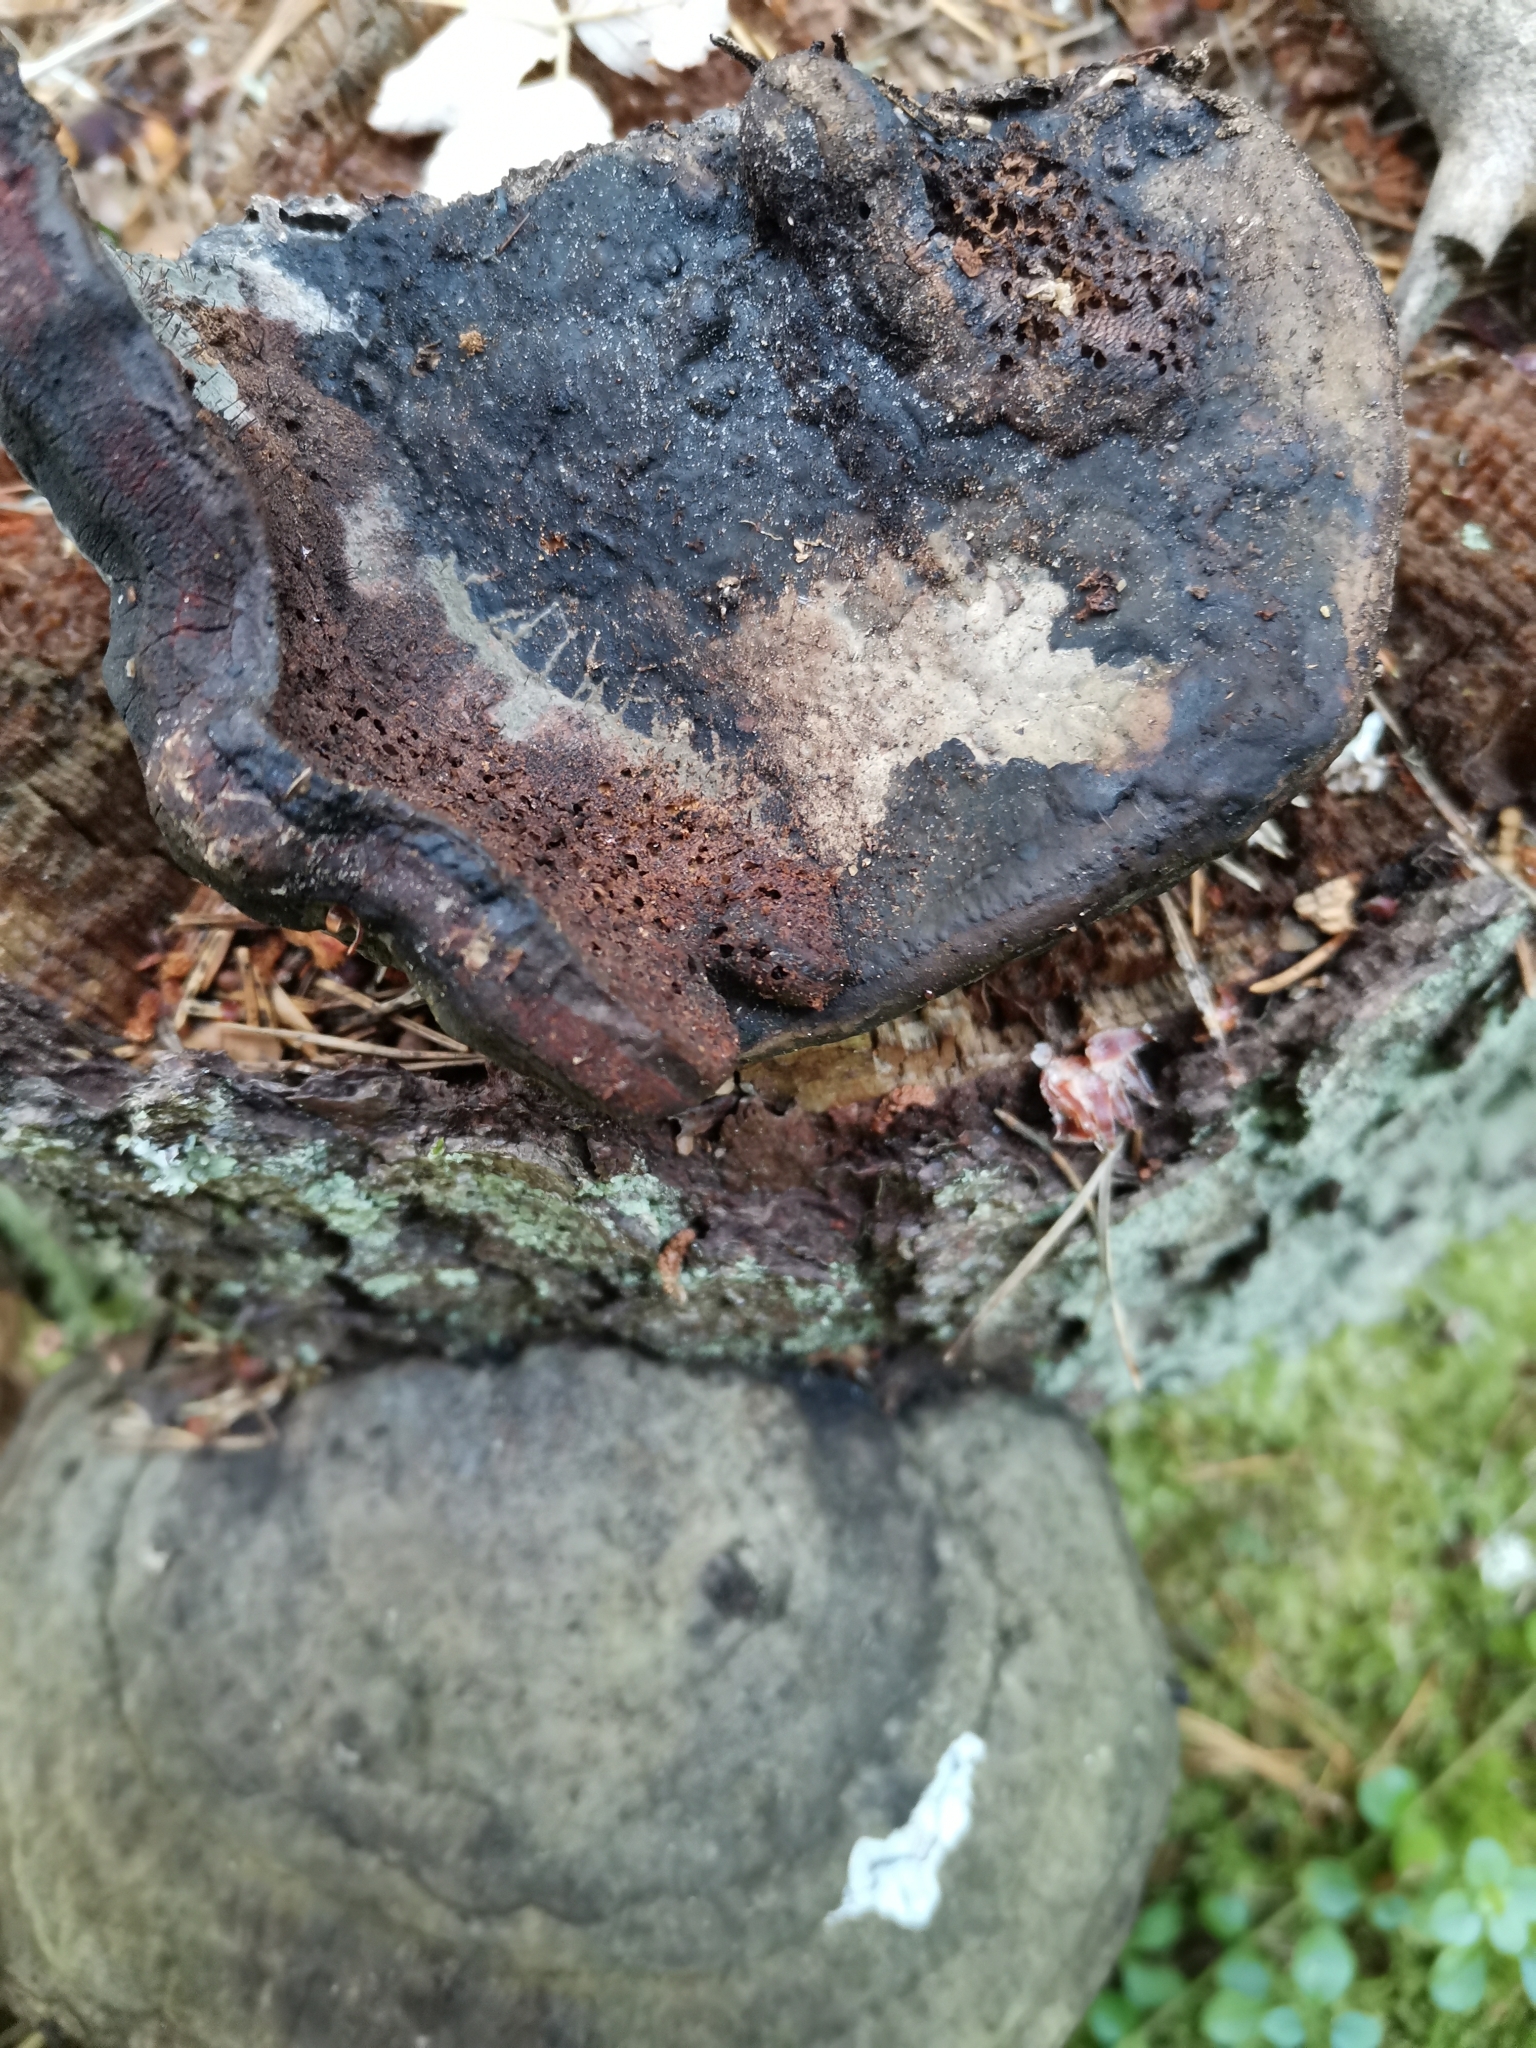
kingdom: Fungi
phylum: Basidiomycota
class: Agaricomycetes
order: Polyporales
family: Fomitopsidaceae
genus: Fomitopsis
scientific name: Fomitopsis pinicola
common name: Red-belted bracket
